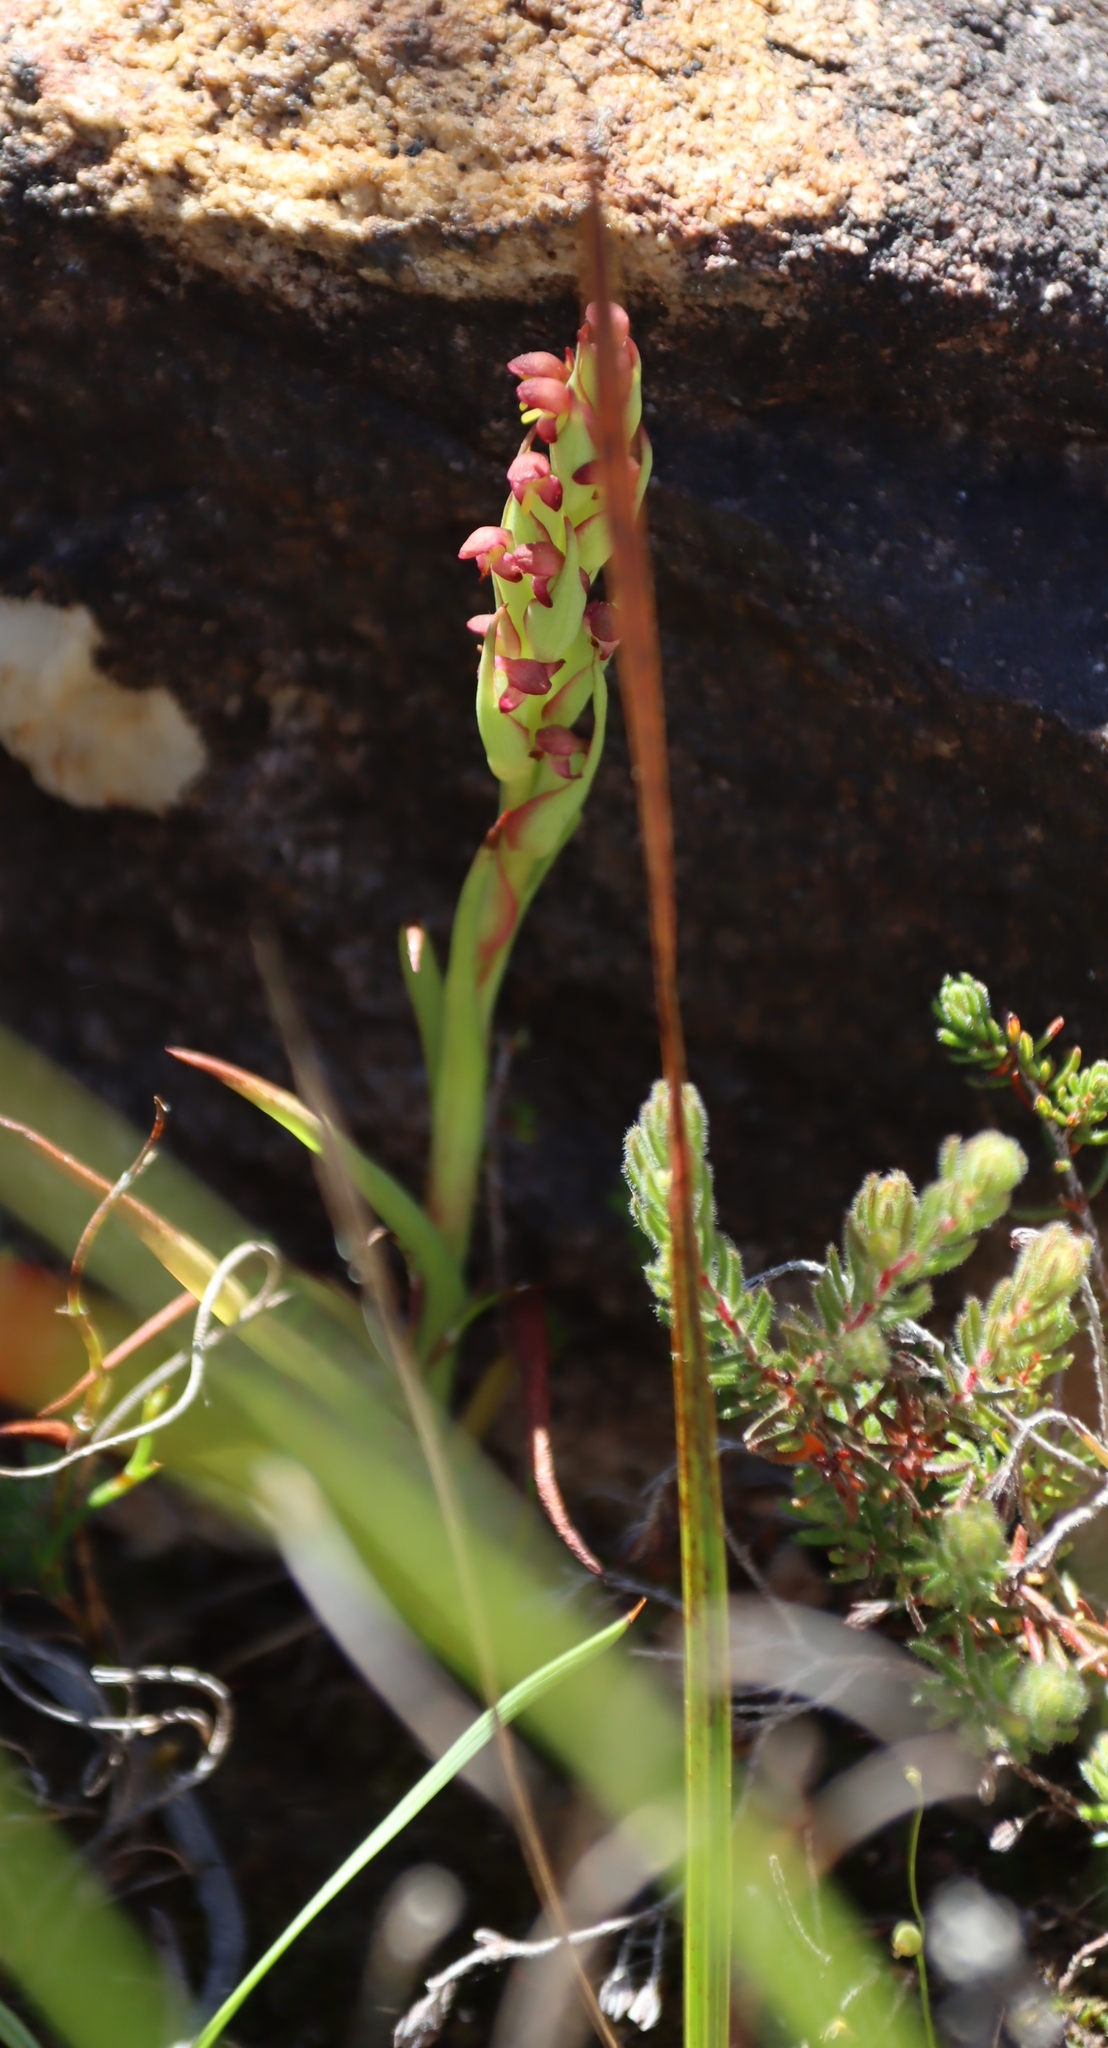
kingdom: Plantae
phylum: Tracheophyta
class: Liliopsida
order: Asparagales
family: Orchidaceae
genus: Disa
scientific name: Disa bracteata
